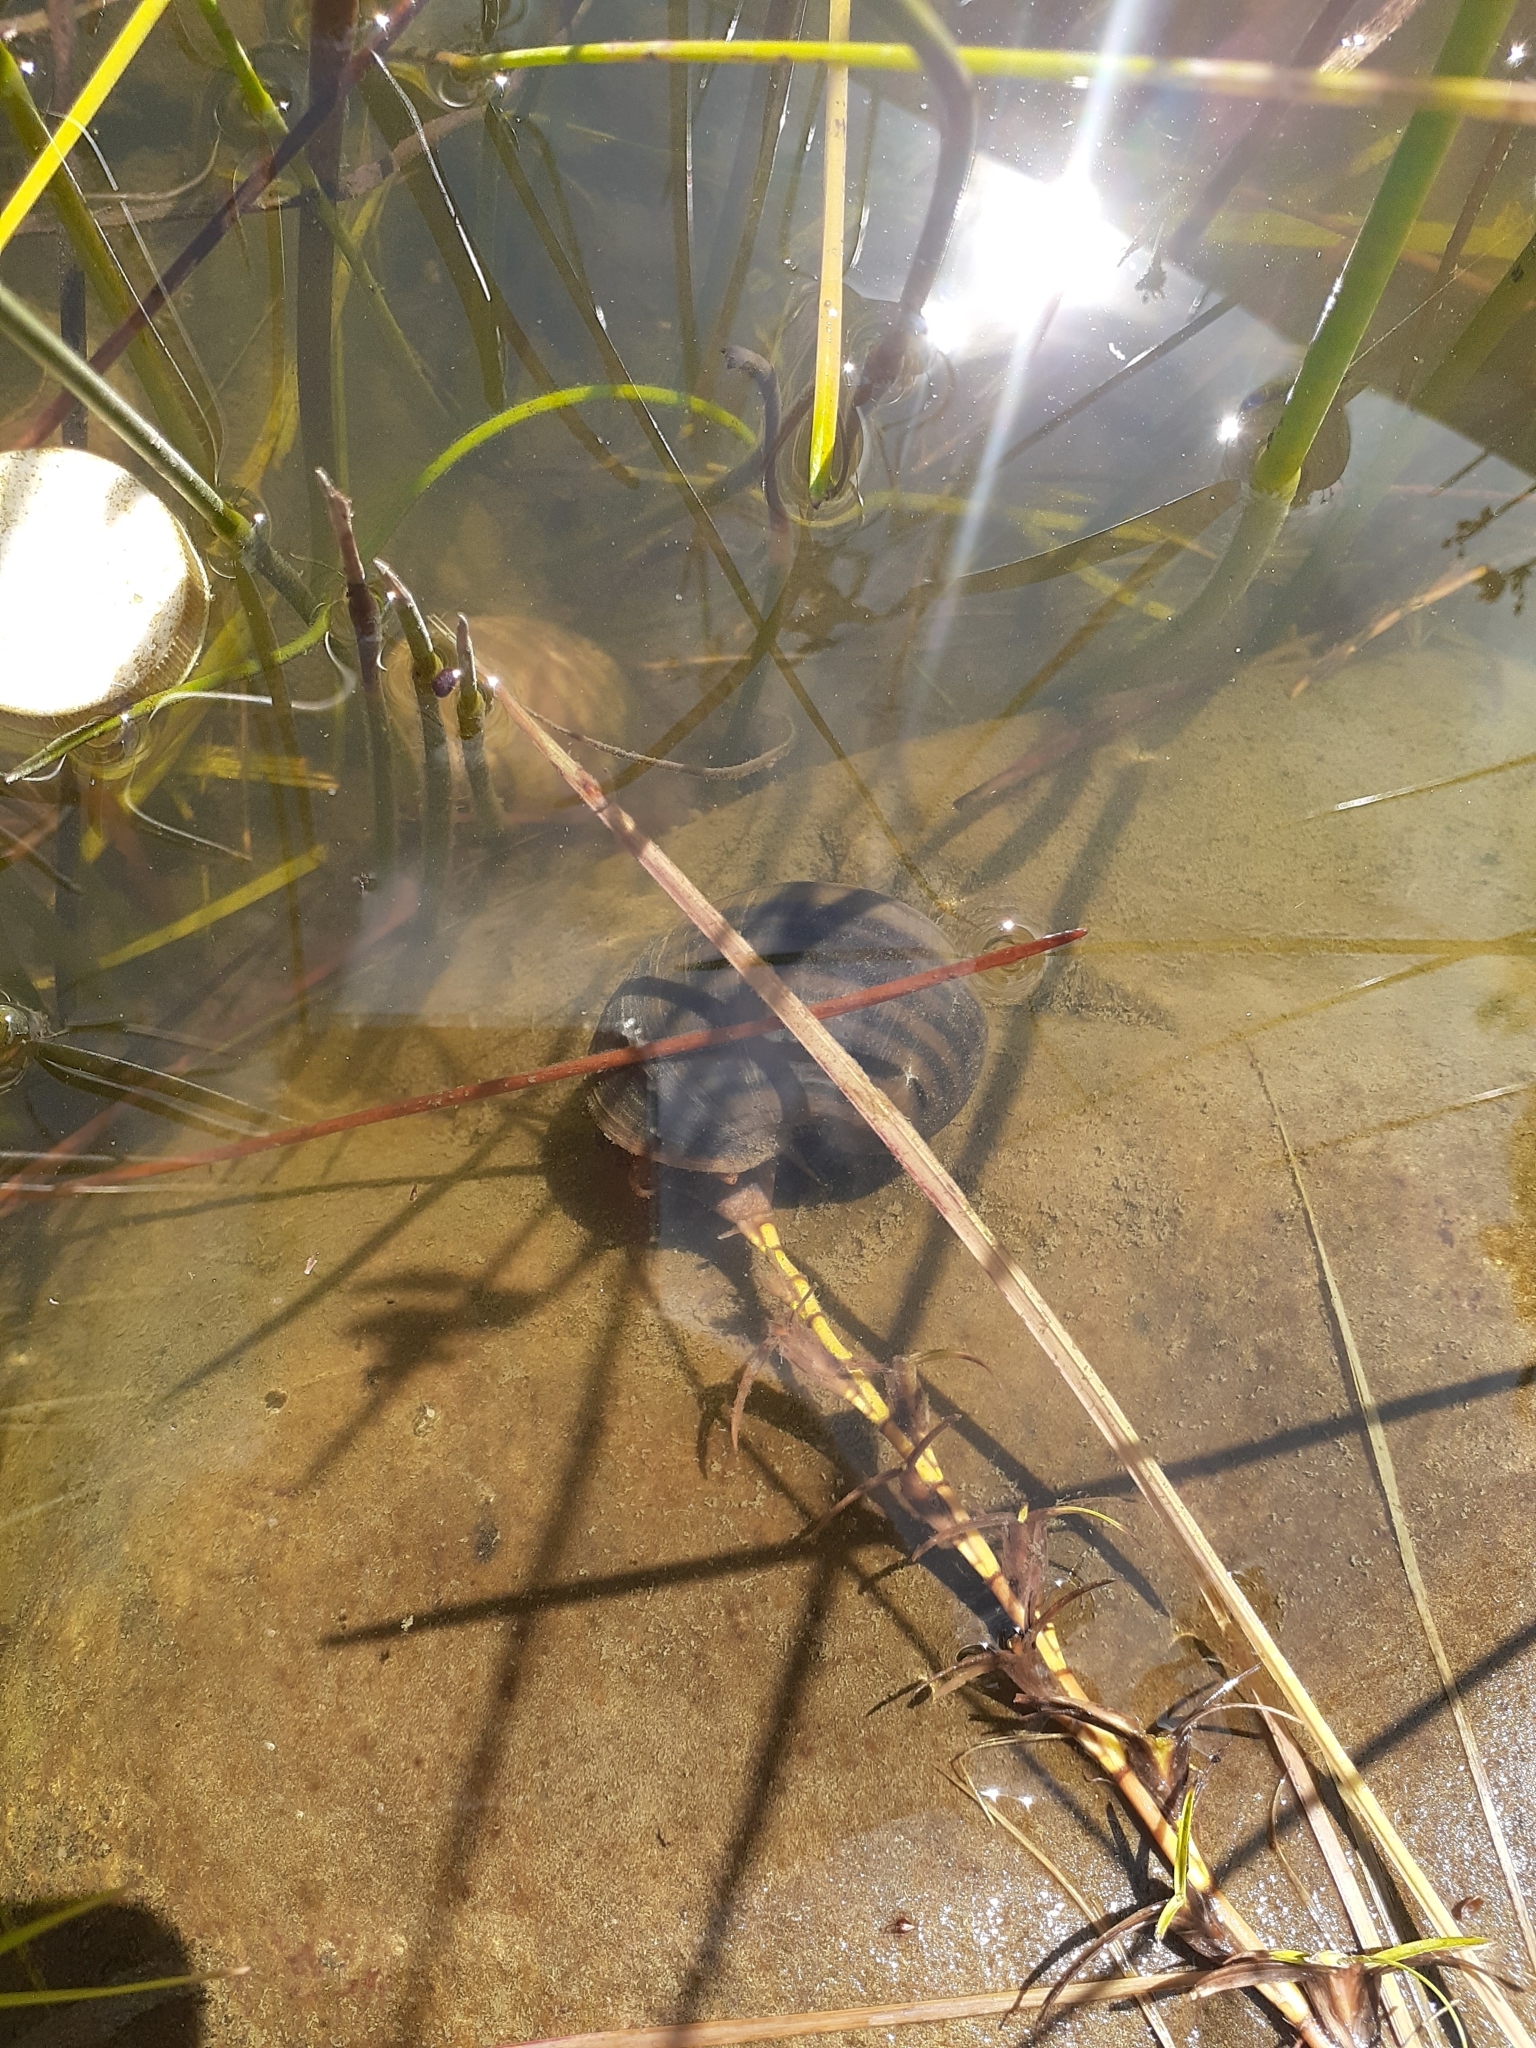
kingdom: Animalia
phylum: Mollusca
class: Gastropoda
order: Architaenioglossa
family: Ampullariidae
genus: Pomacea
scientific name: Pomacea canaliculata
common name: Channeled applesnail
